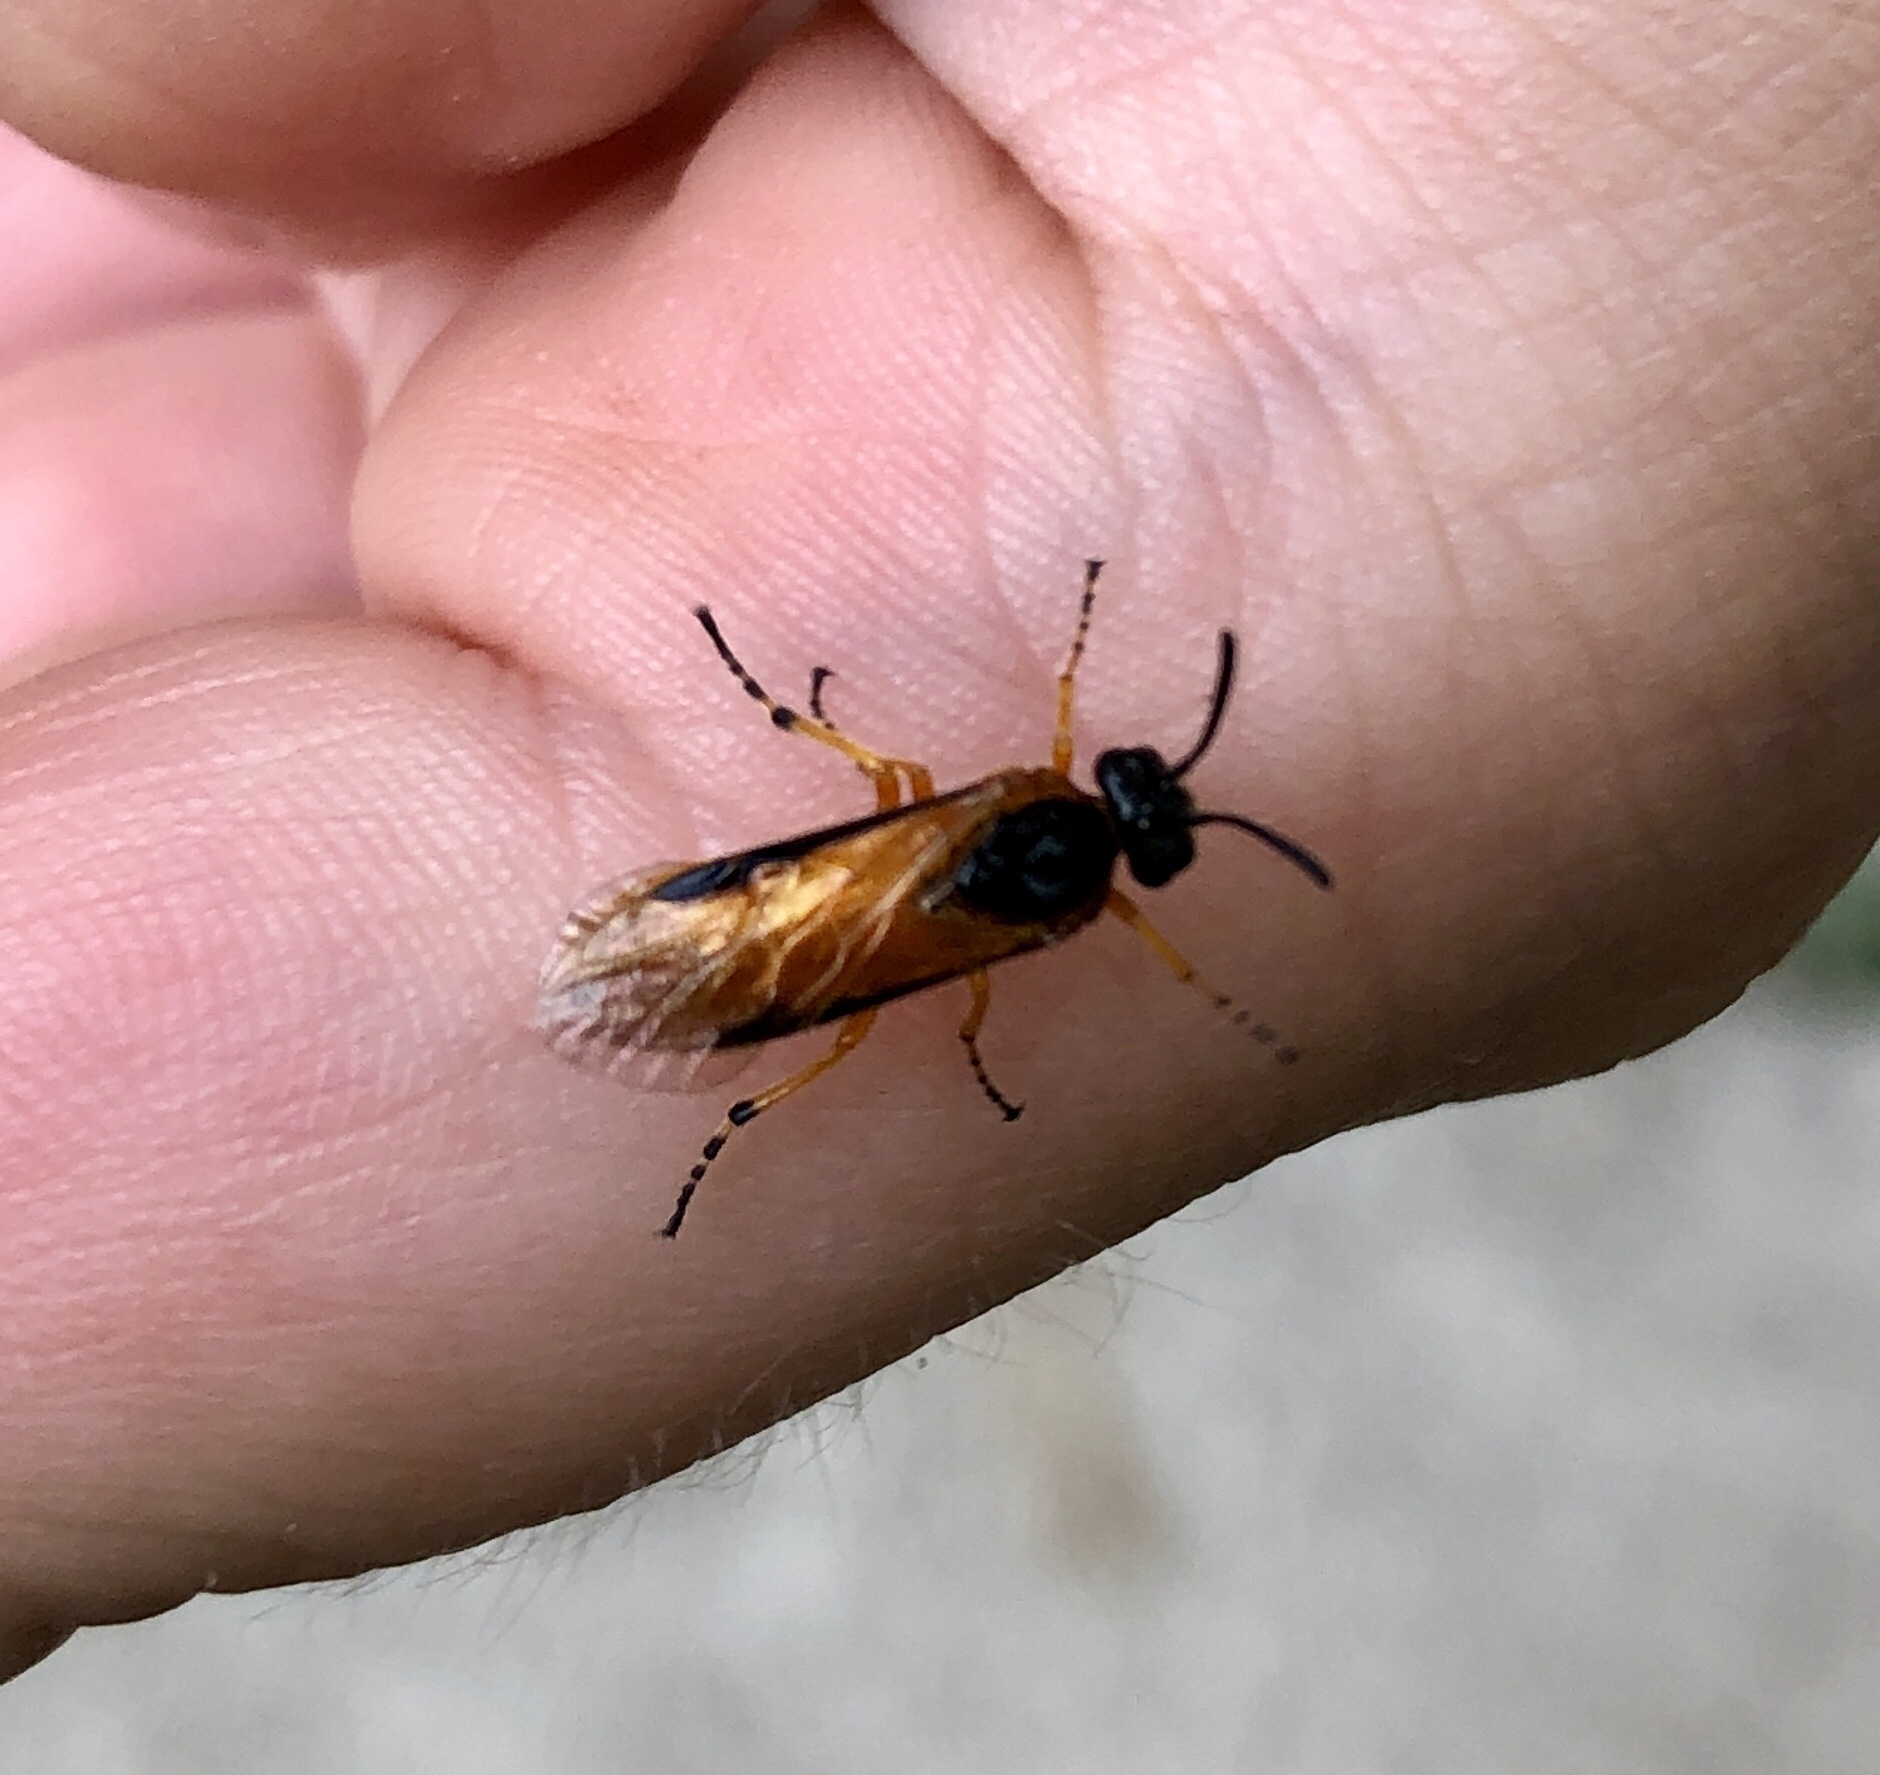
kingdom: Animalia
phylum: Arthropoda
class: Insecta
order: Hymenoptera
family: Argidae
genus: Arge
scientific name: Arge ochropus
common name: Argid sawfly
